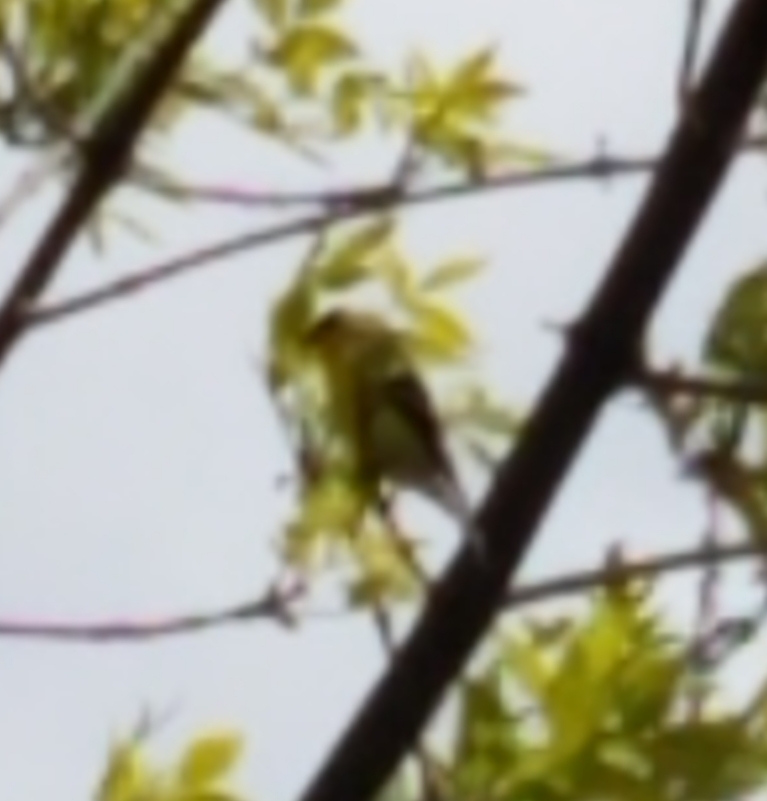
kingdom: Animalia
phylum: Chordata
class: Aves
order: Passeriformes
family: Fringillidae
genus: Spinus
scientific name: Spinus tristis
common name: American goldfinch
